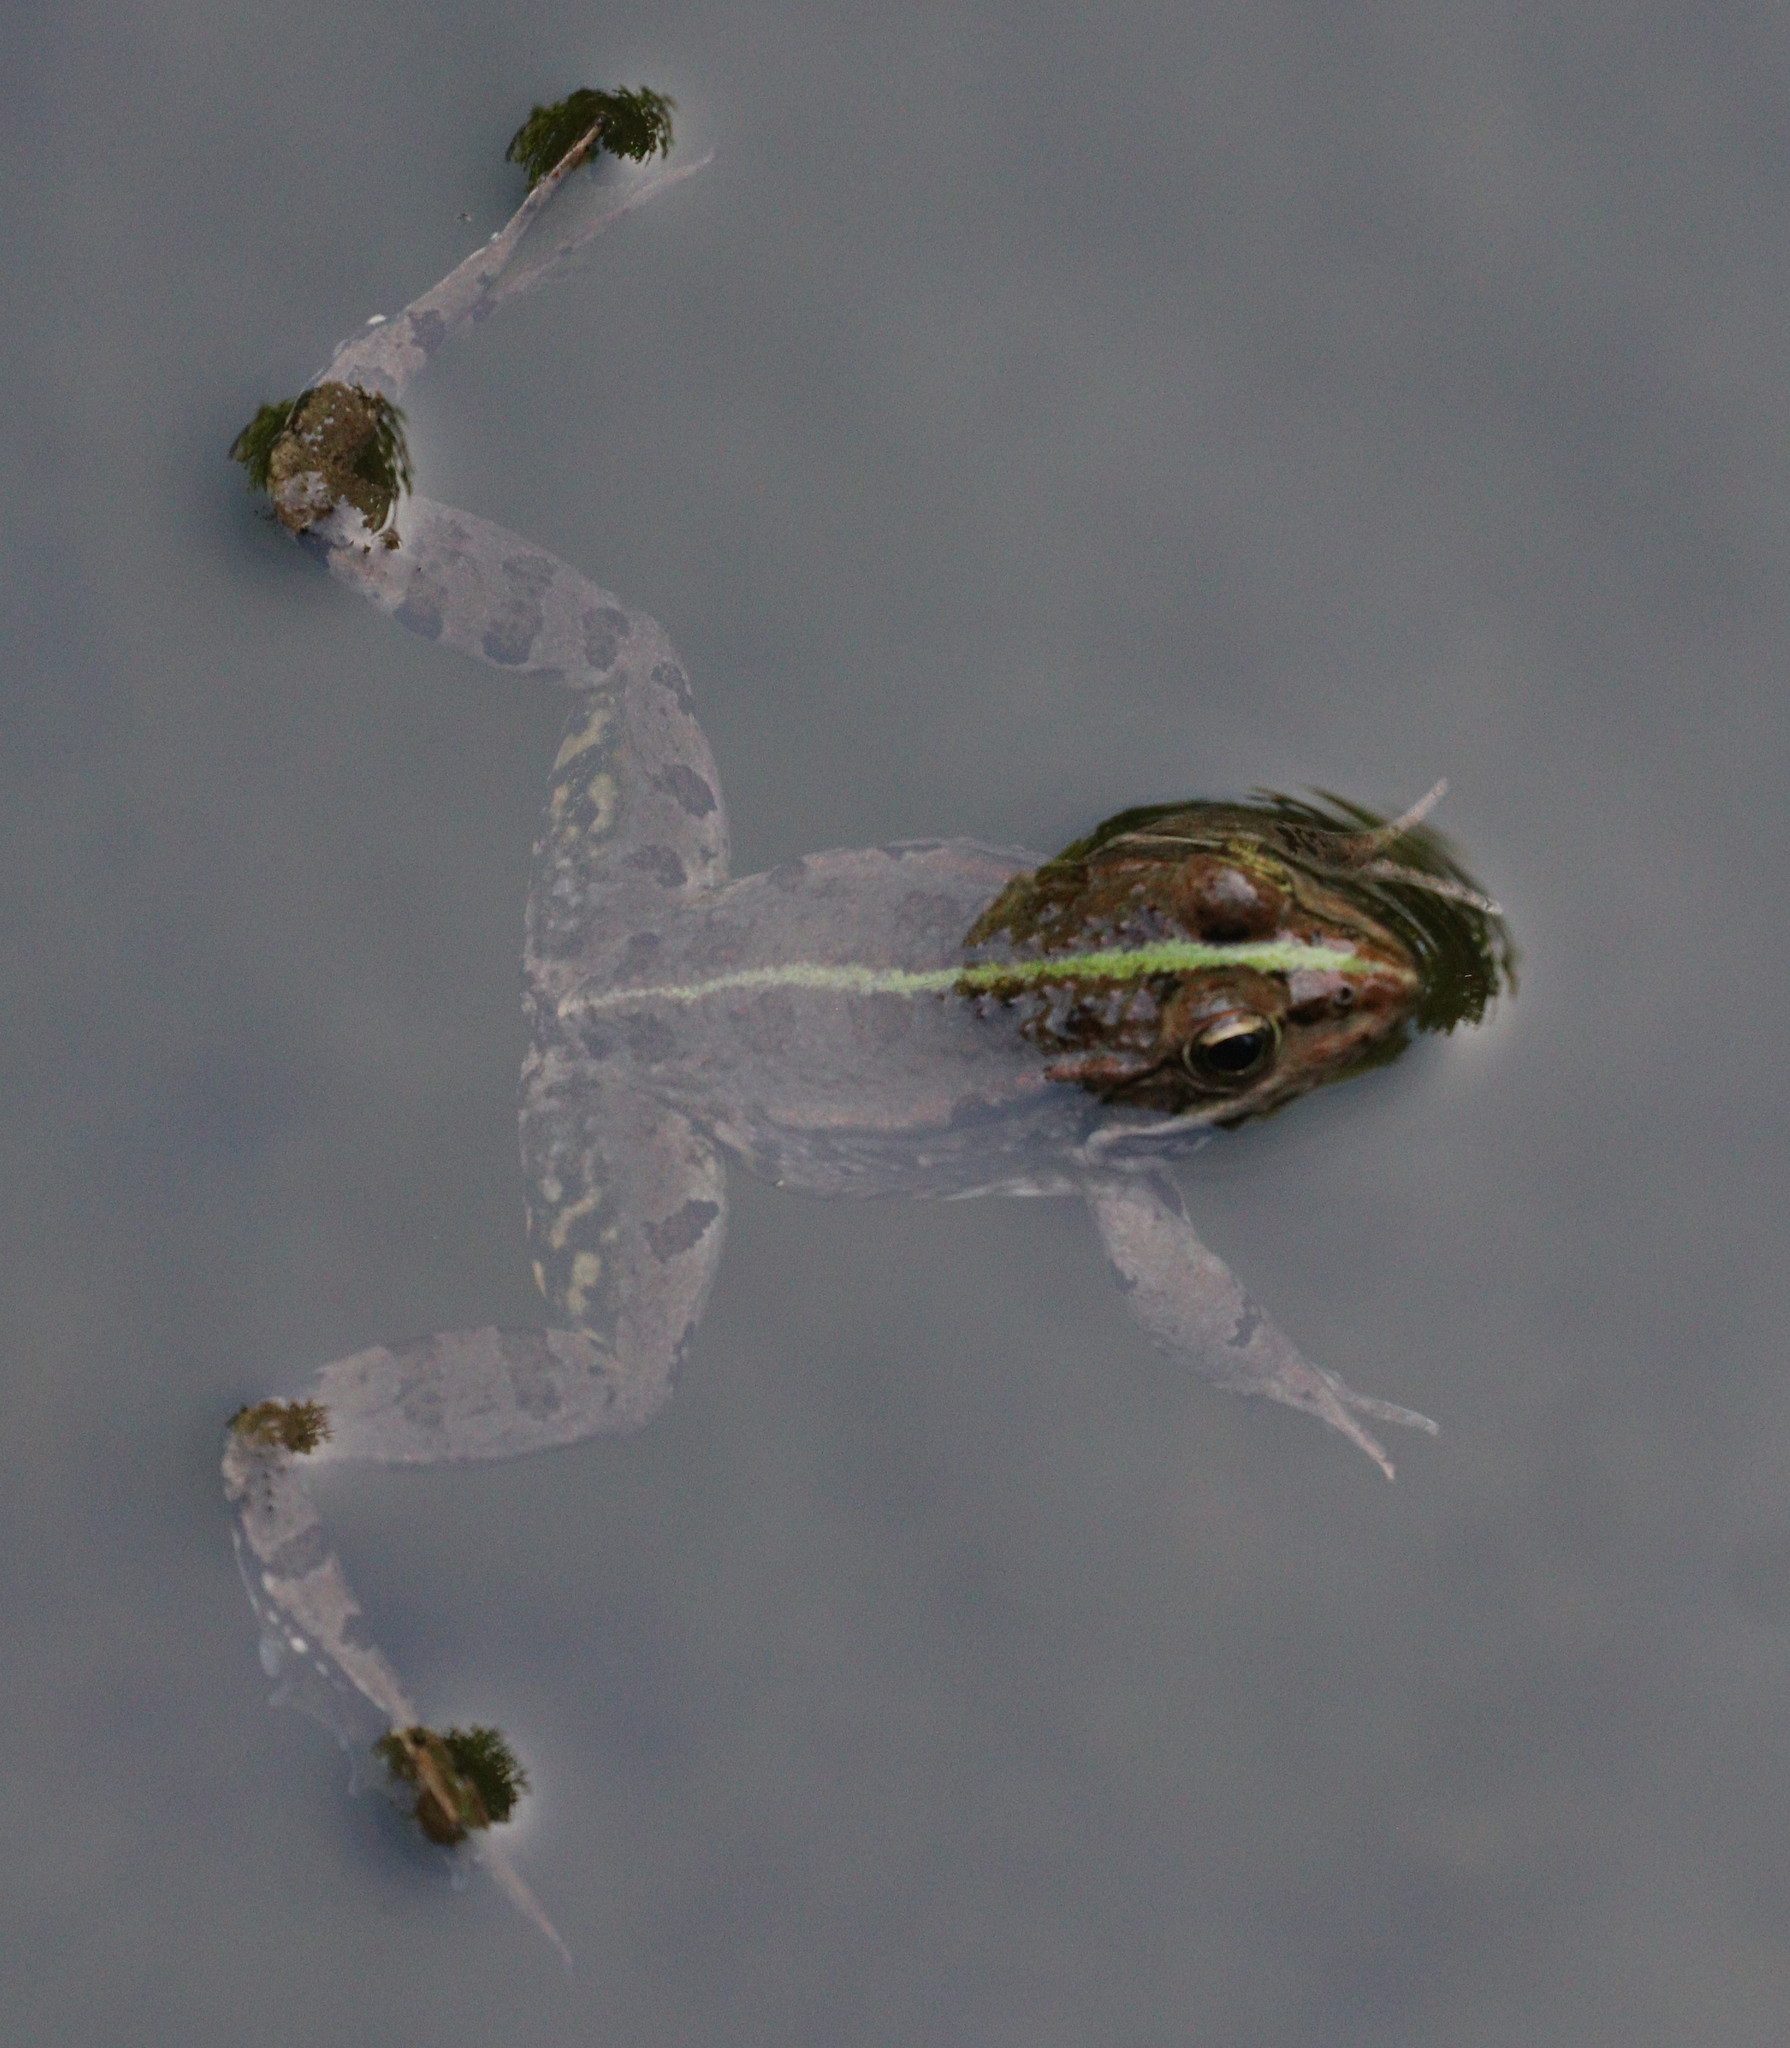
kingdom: Animalia
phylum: Chordata
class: Amphibia
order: Anura
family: Ranidae
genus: Pelophylax
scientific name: Pelophylax ridibundus
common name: Marsh frog
